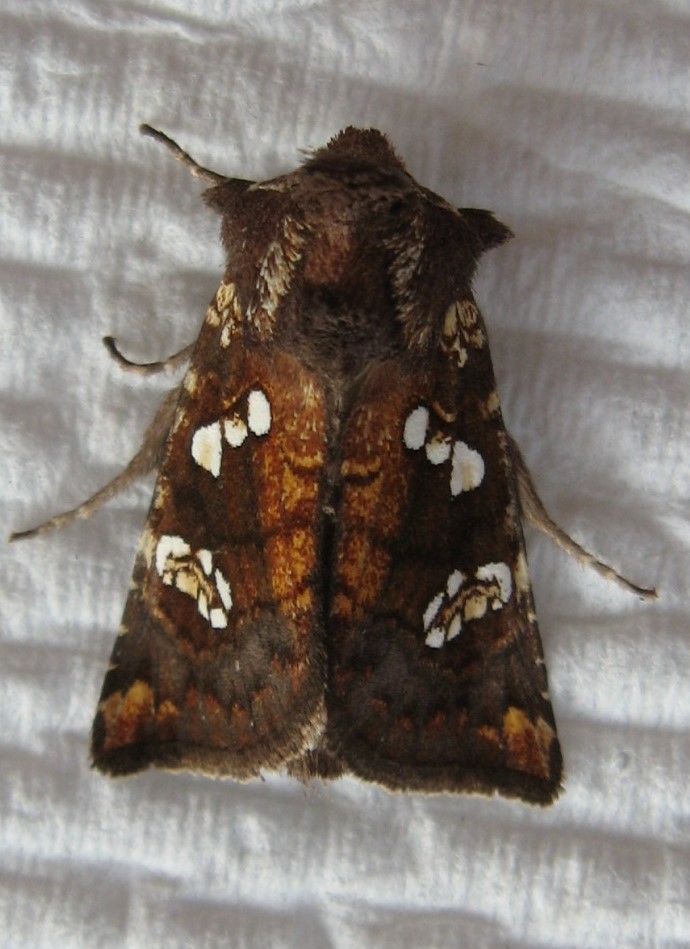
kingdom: Animalia
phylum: Arthropoda
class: Insecta
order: Lepidoptera
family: Noctuidae
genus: Papaipema
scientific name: Papaipema nepheleptena
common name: Turtle head borer moth
